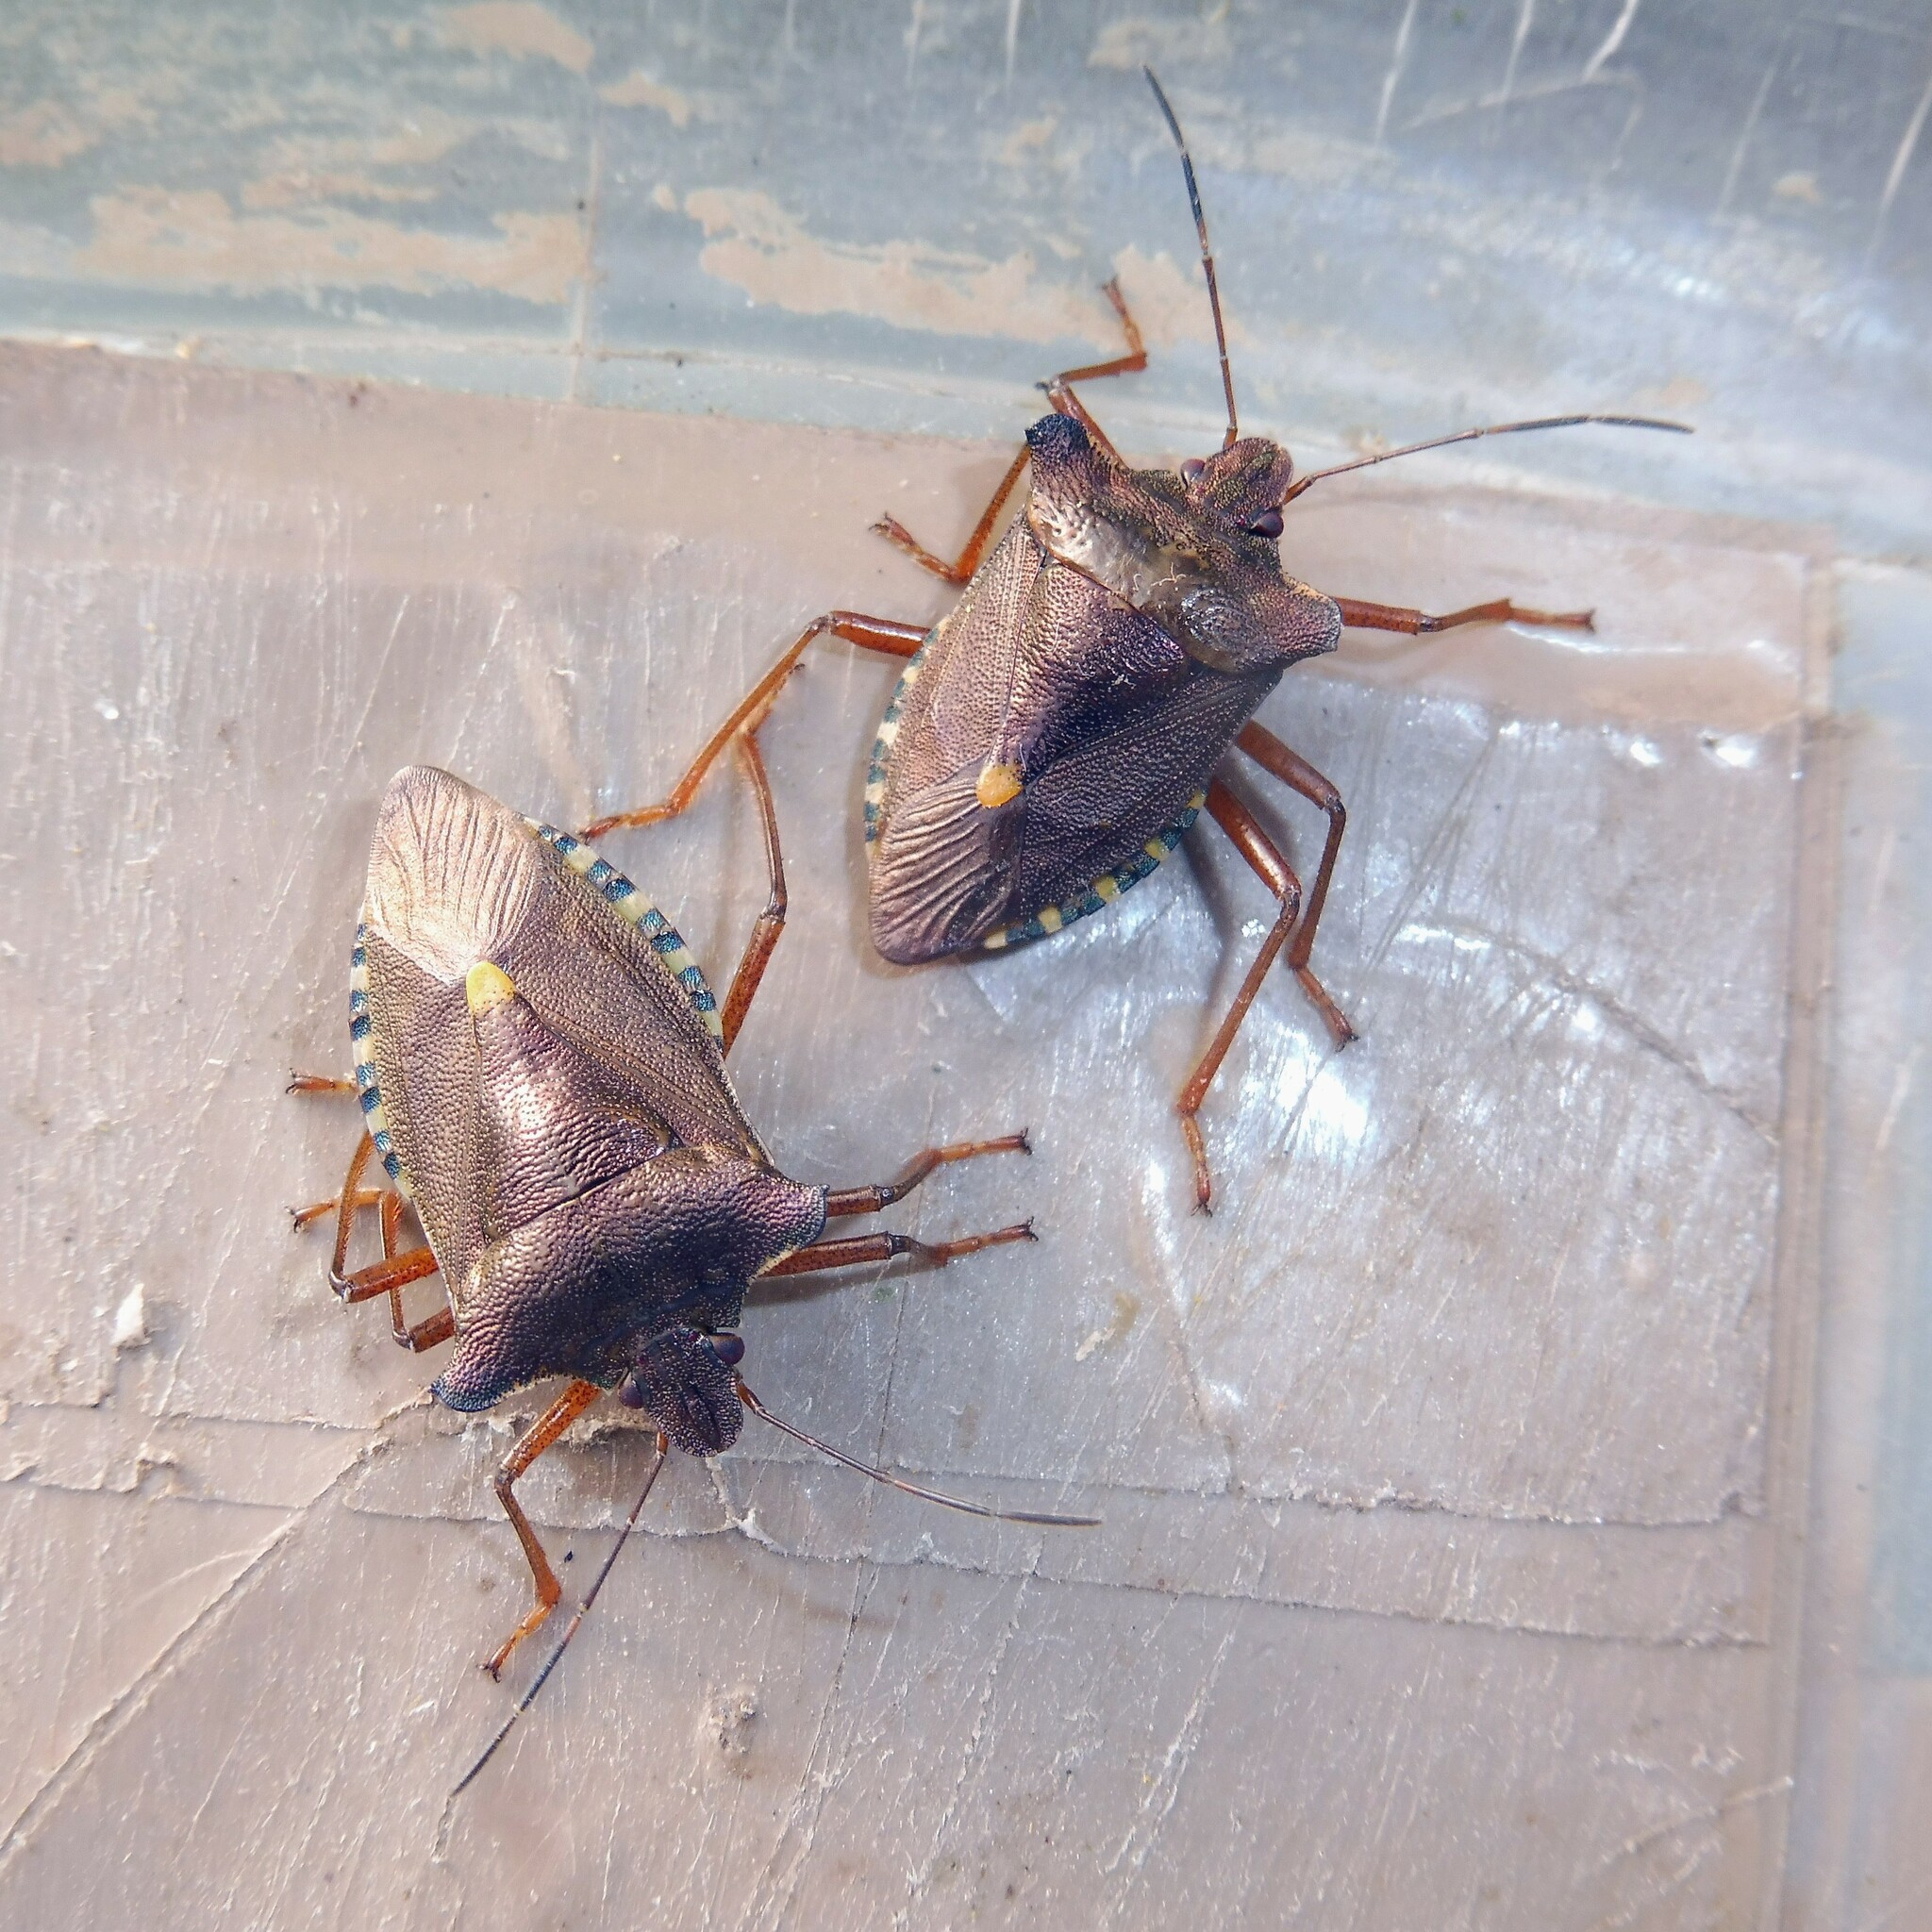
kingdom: Animalia
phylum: Arthropoda
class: Insecta
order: Hemiptera
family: Pentatomidae
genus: Pentatoma
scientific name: Pentatoma rufipes
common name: Forest bug
